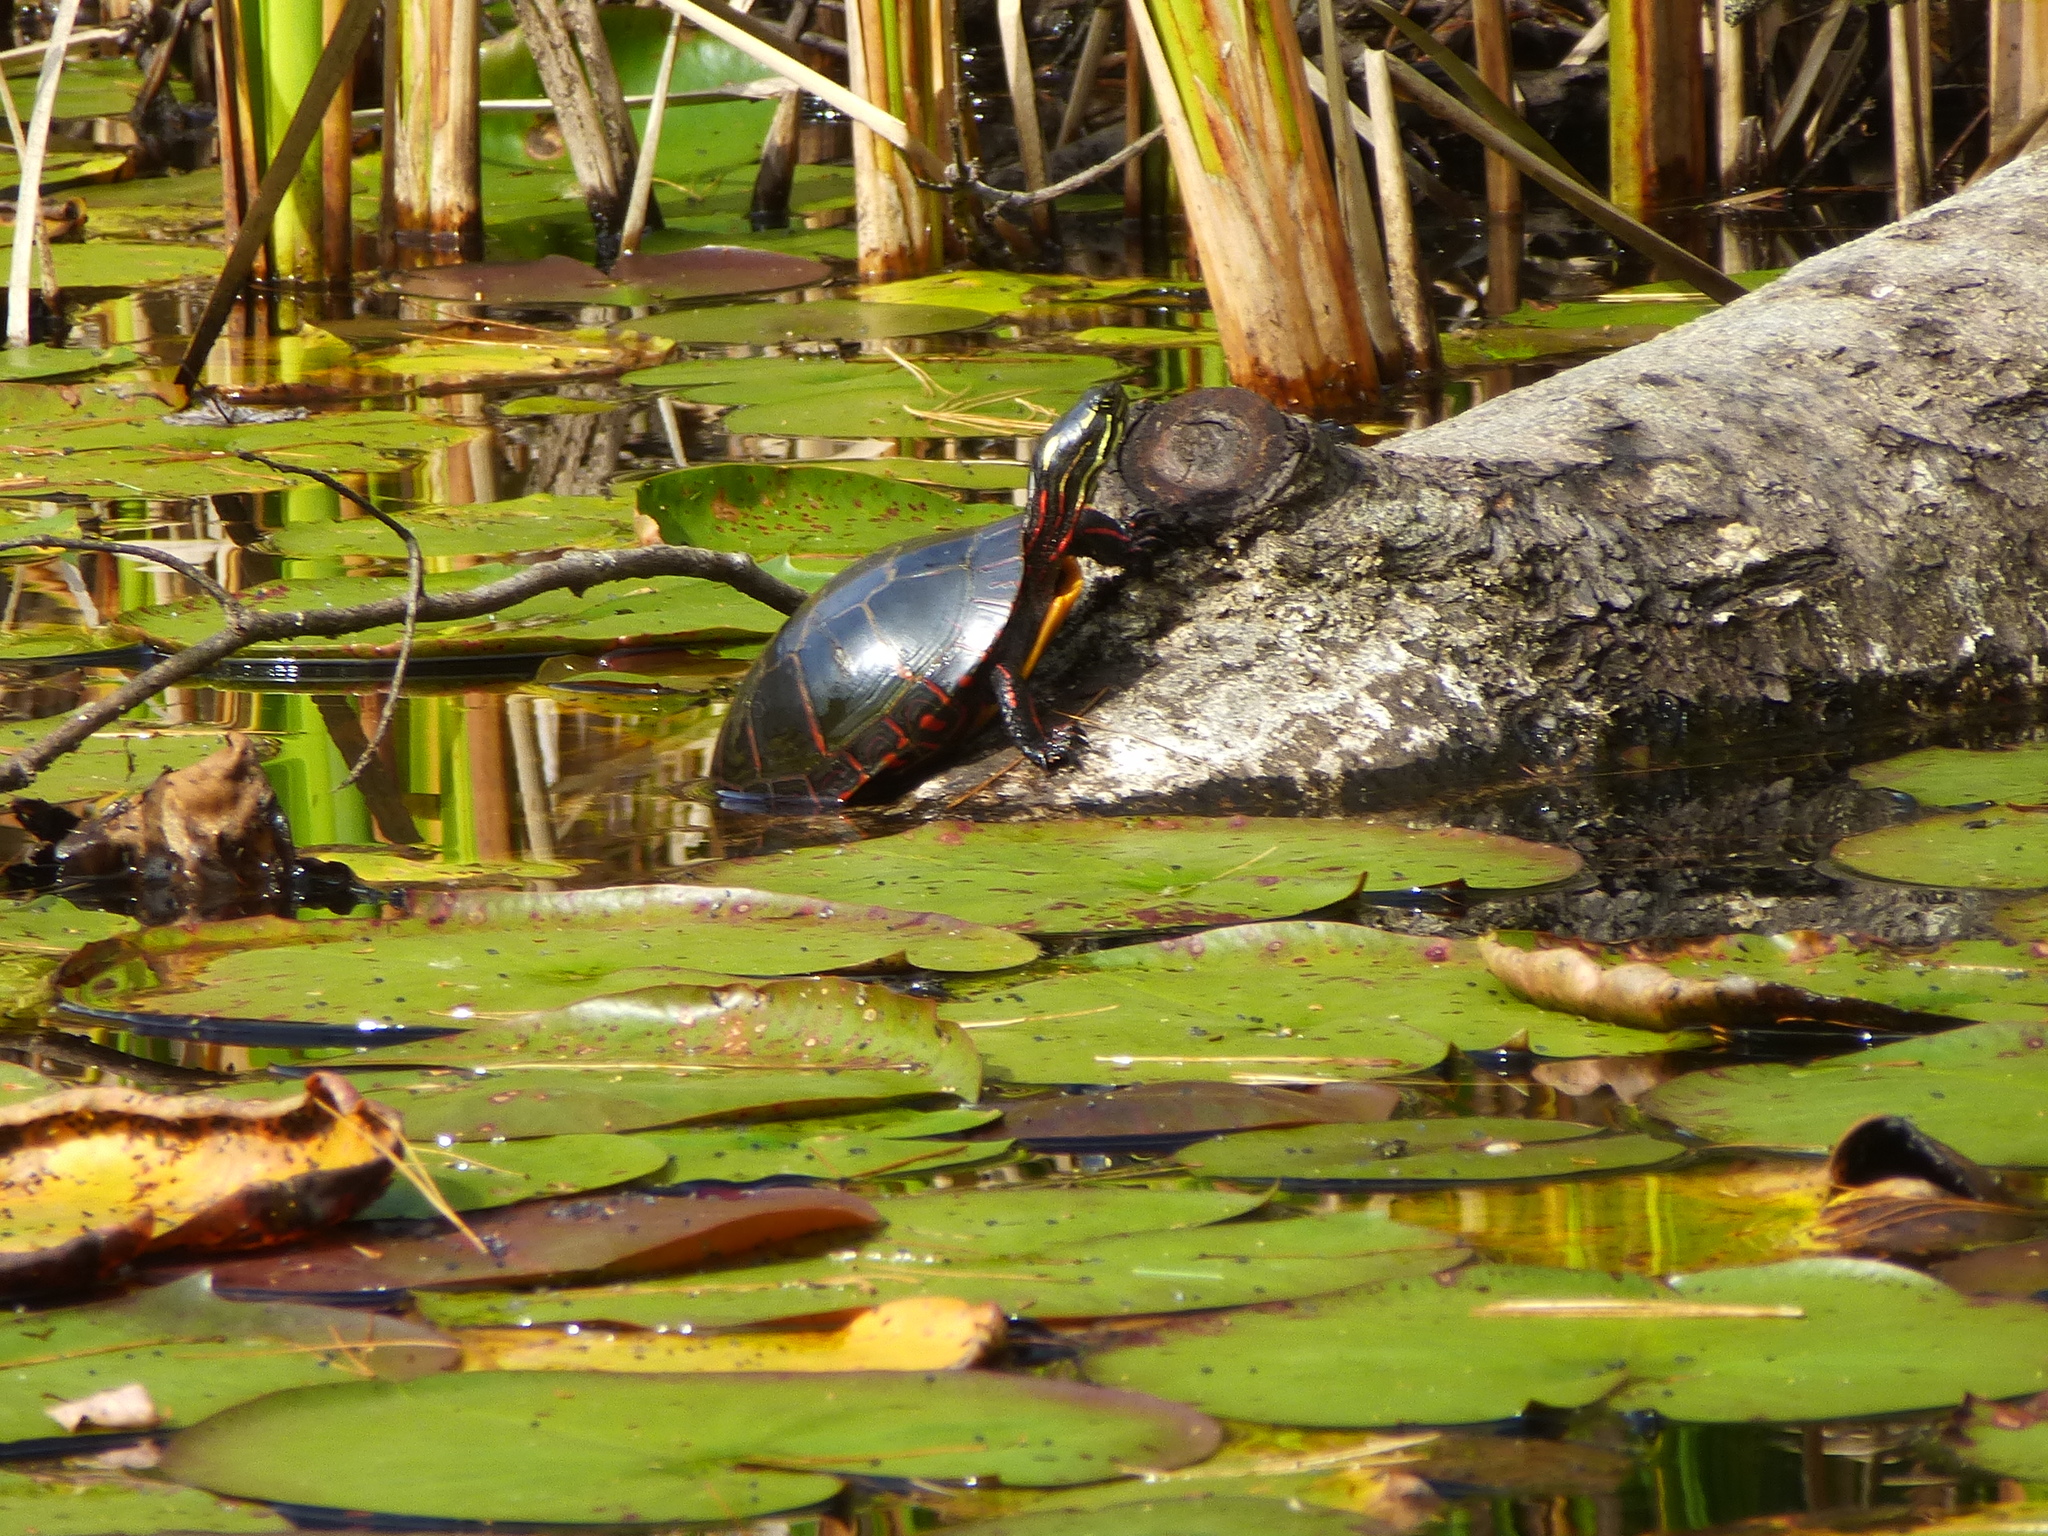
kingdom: Animalia
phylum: Chordata
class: Testudines
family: Emydidae
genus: Chrysemys
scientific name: Chrysemys picta
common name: Painted turtle
